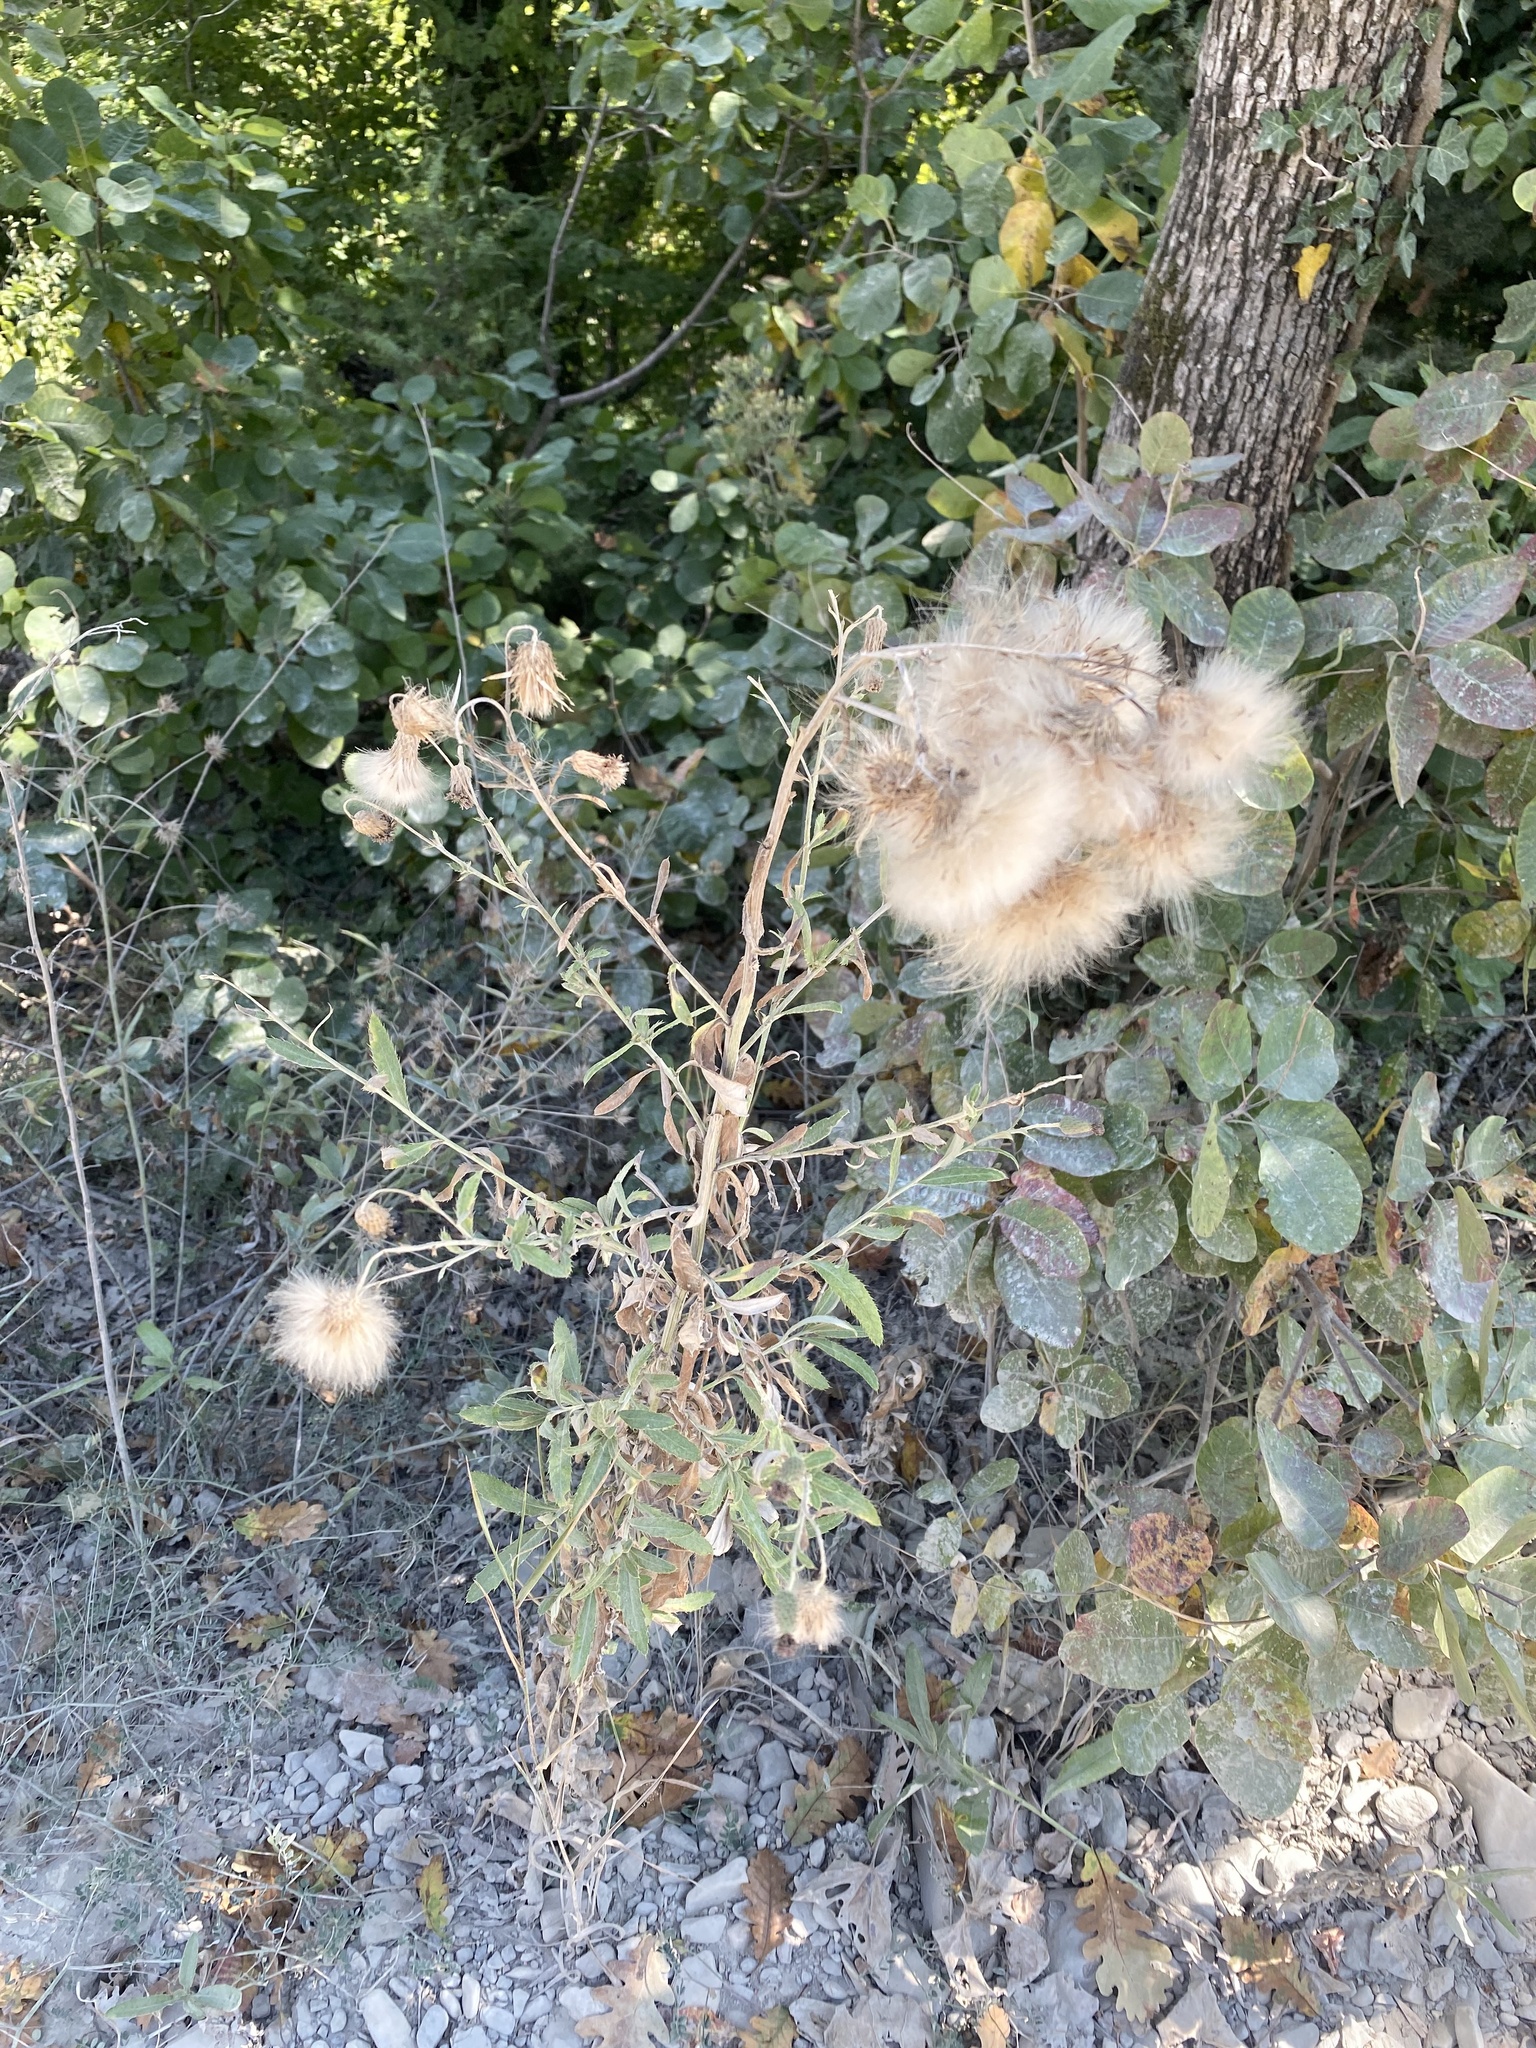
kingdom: Plantae
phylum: Tracheophyta
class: Magnoliopsida
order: Asterales
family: Asteraceae
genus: Cirsium
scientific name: Cirsium arvense
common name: Creeping thistle
